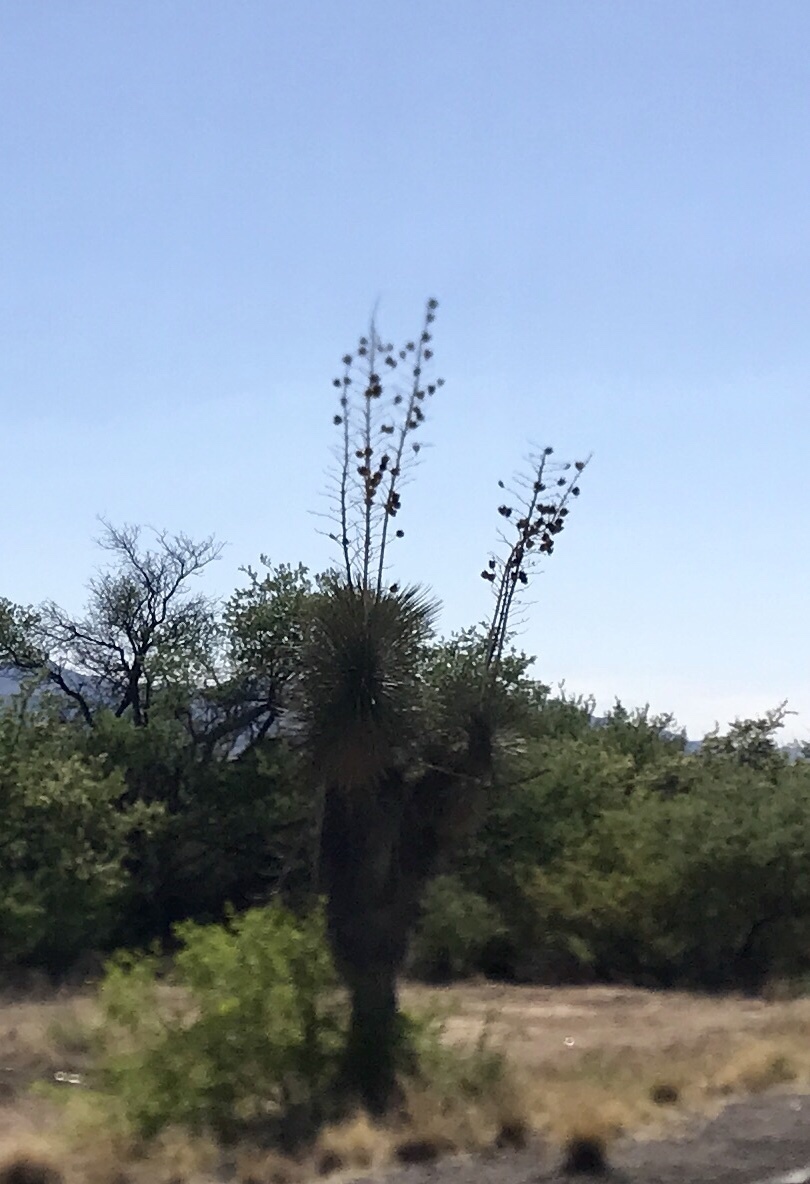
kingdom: Plantae
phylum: Tracheophyta
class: Liliopsida
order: Asparagales
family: Asparagaceae
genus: Yucca
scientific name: Yucca elata
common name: Palmella
